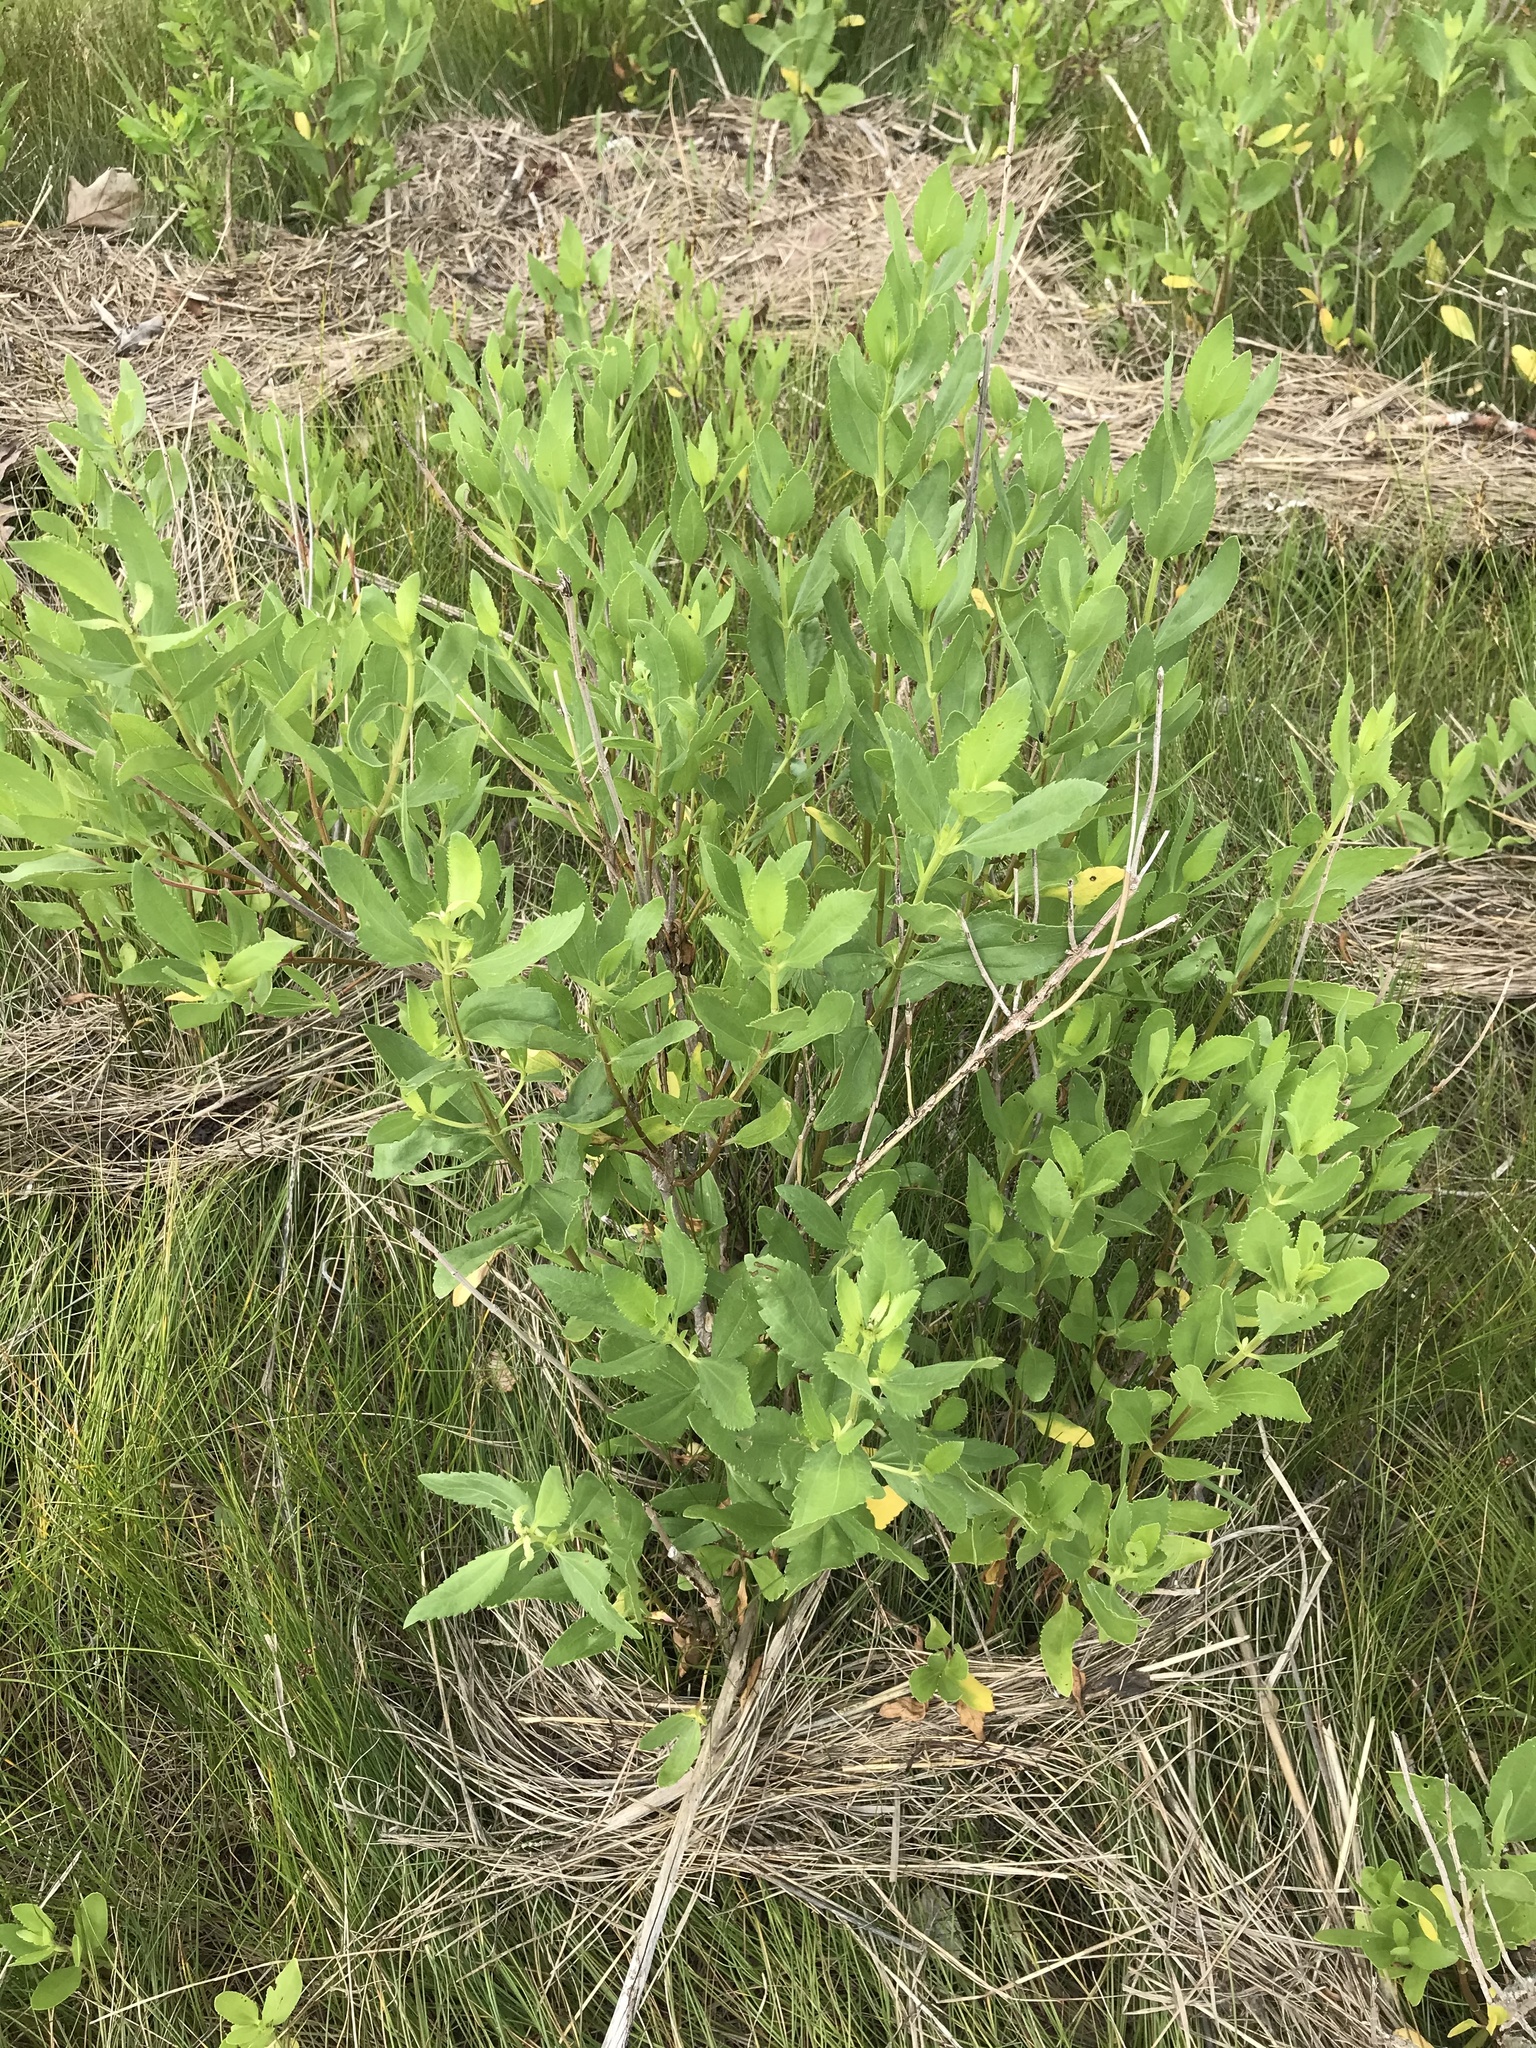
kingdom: Plantae
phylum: Tracheophyta
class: Magnoliopsida
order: Asterales
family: Asteraceae
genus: Iva
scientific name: Iva frutescens
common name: Big-leaved marsh-elder
